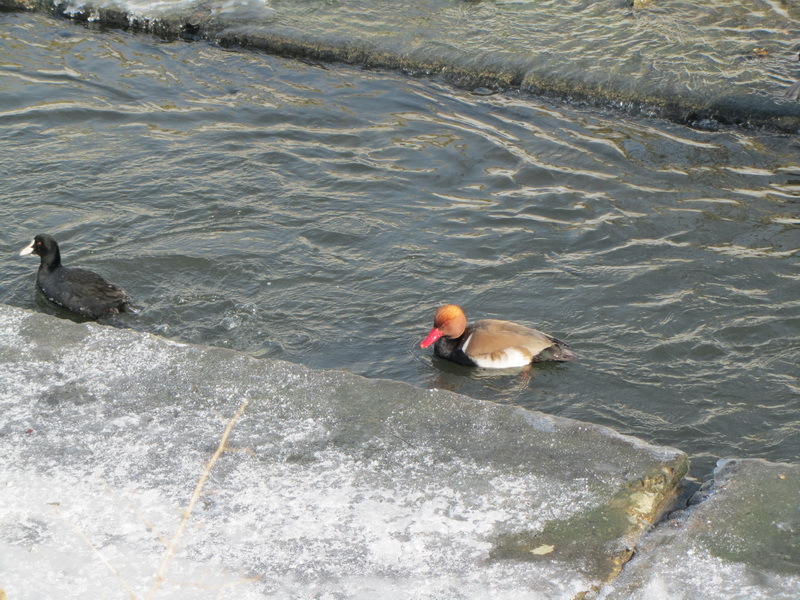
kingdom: Animalia
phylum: Chordata
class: Aves
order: Anseriformes
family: Anatidae
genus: Netta
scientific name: Netta rufina
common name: Red-crested pochard
